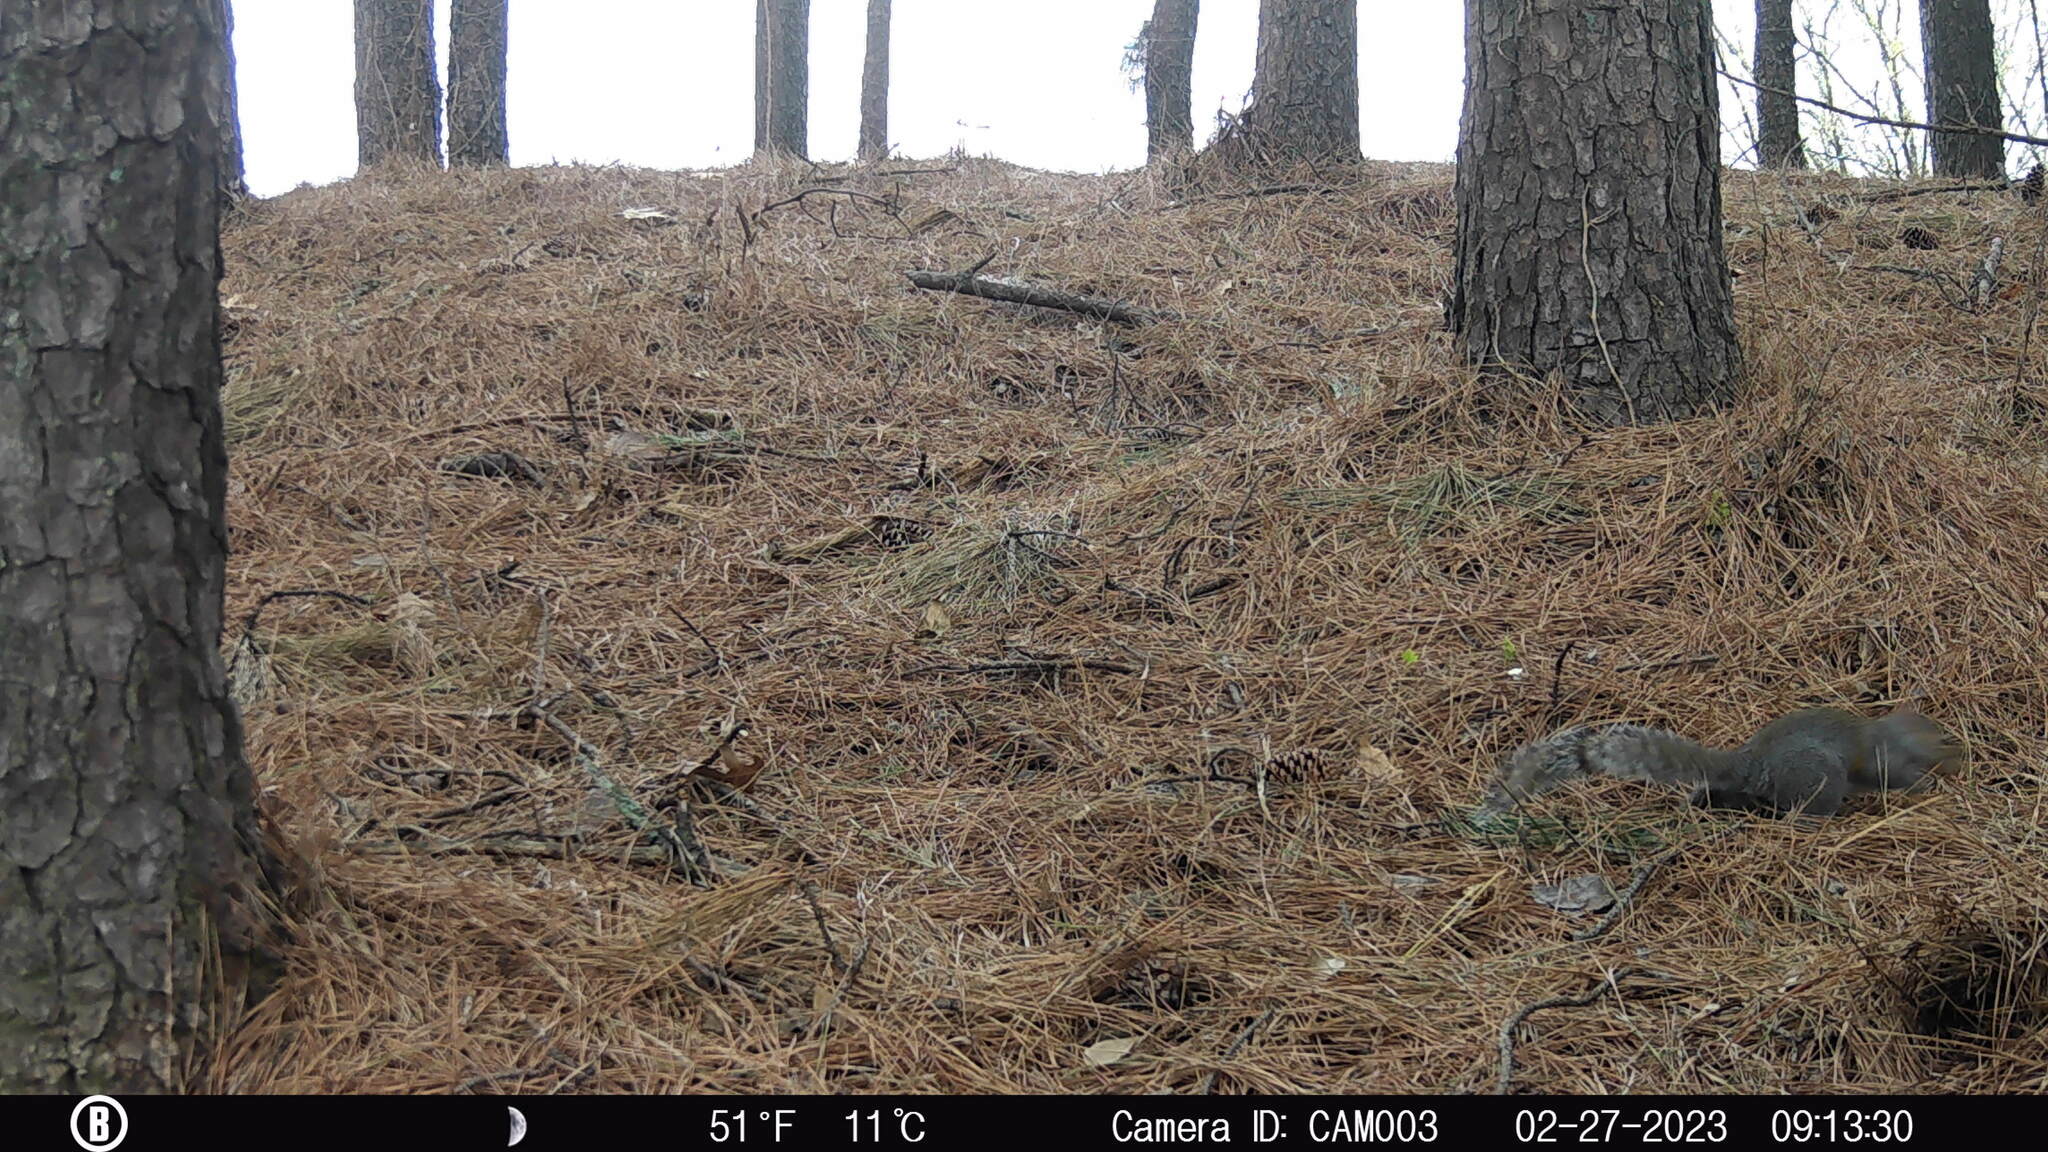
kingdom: Animalia
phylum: Chordata
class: Mammalia
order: Rodentia
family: Sciuridae
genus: Sciurus
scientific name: Sciurus carolinensis
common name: Eastern gray squirrel
